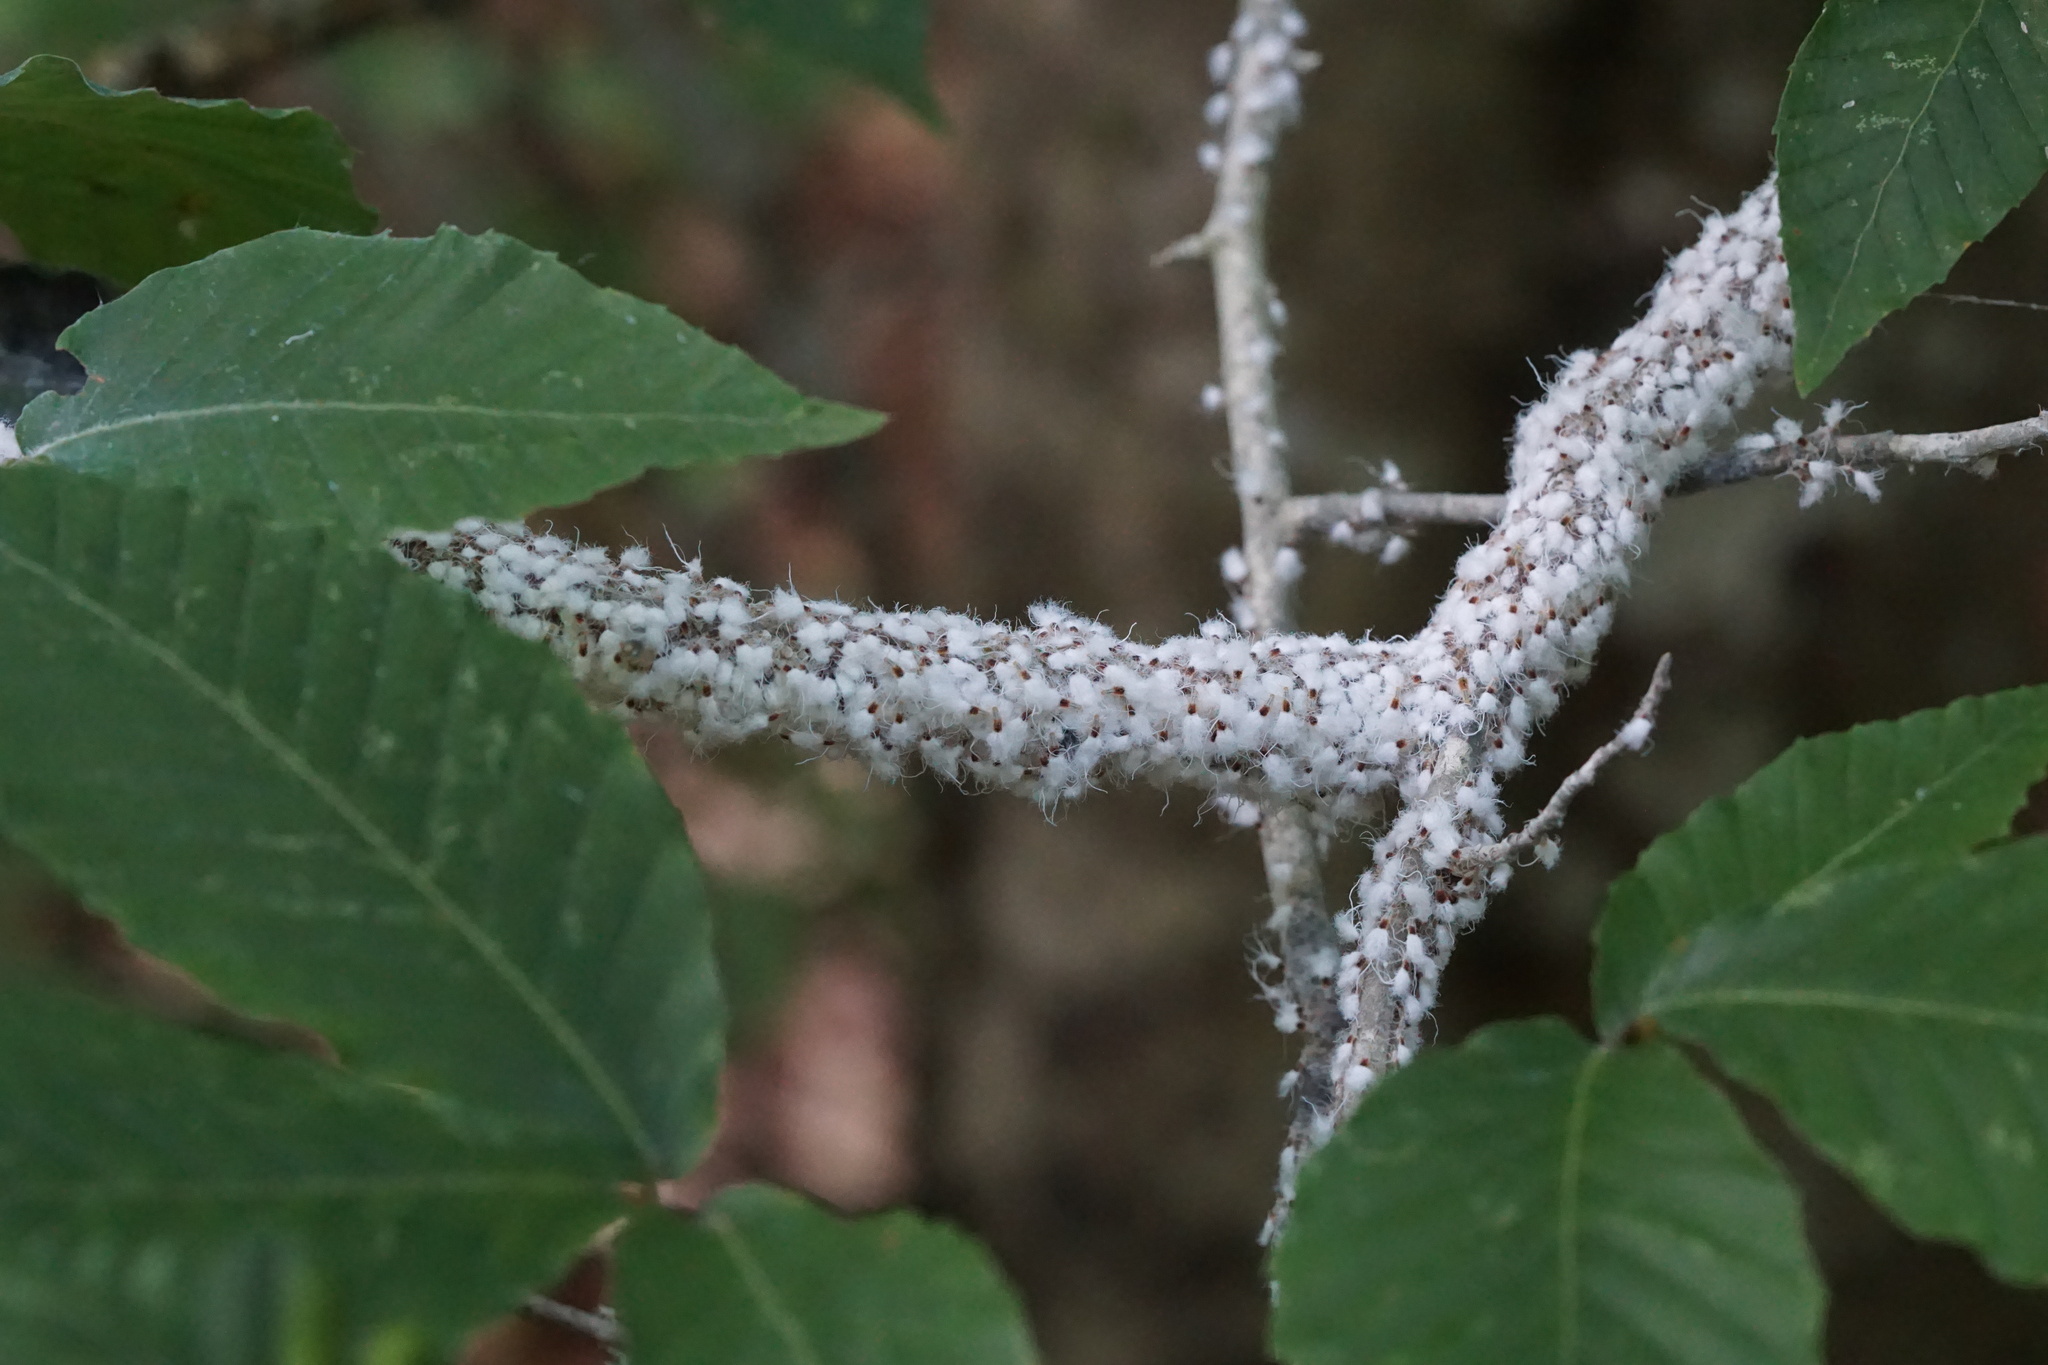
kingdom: Animalia
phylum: Arthropoda
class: Insecta
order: Hemiptera
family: Aphididae
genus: Grylloprociphilus
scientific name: Grylloprociphilus imbricator
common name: Beech blight aphid
